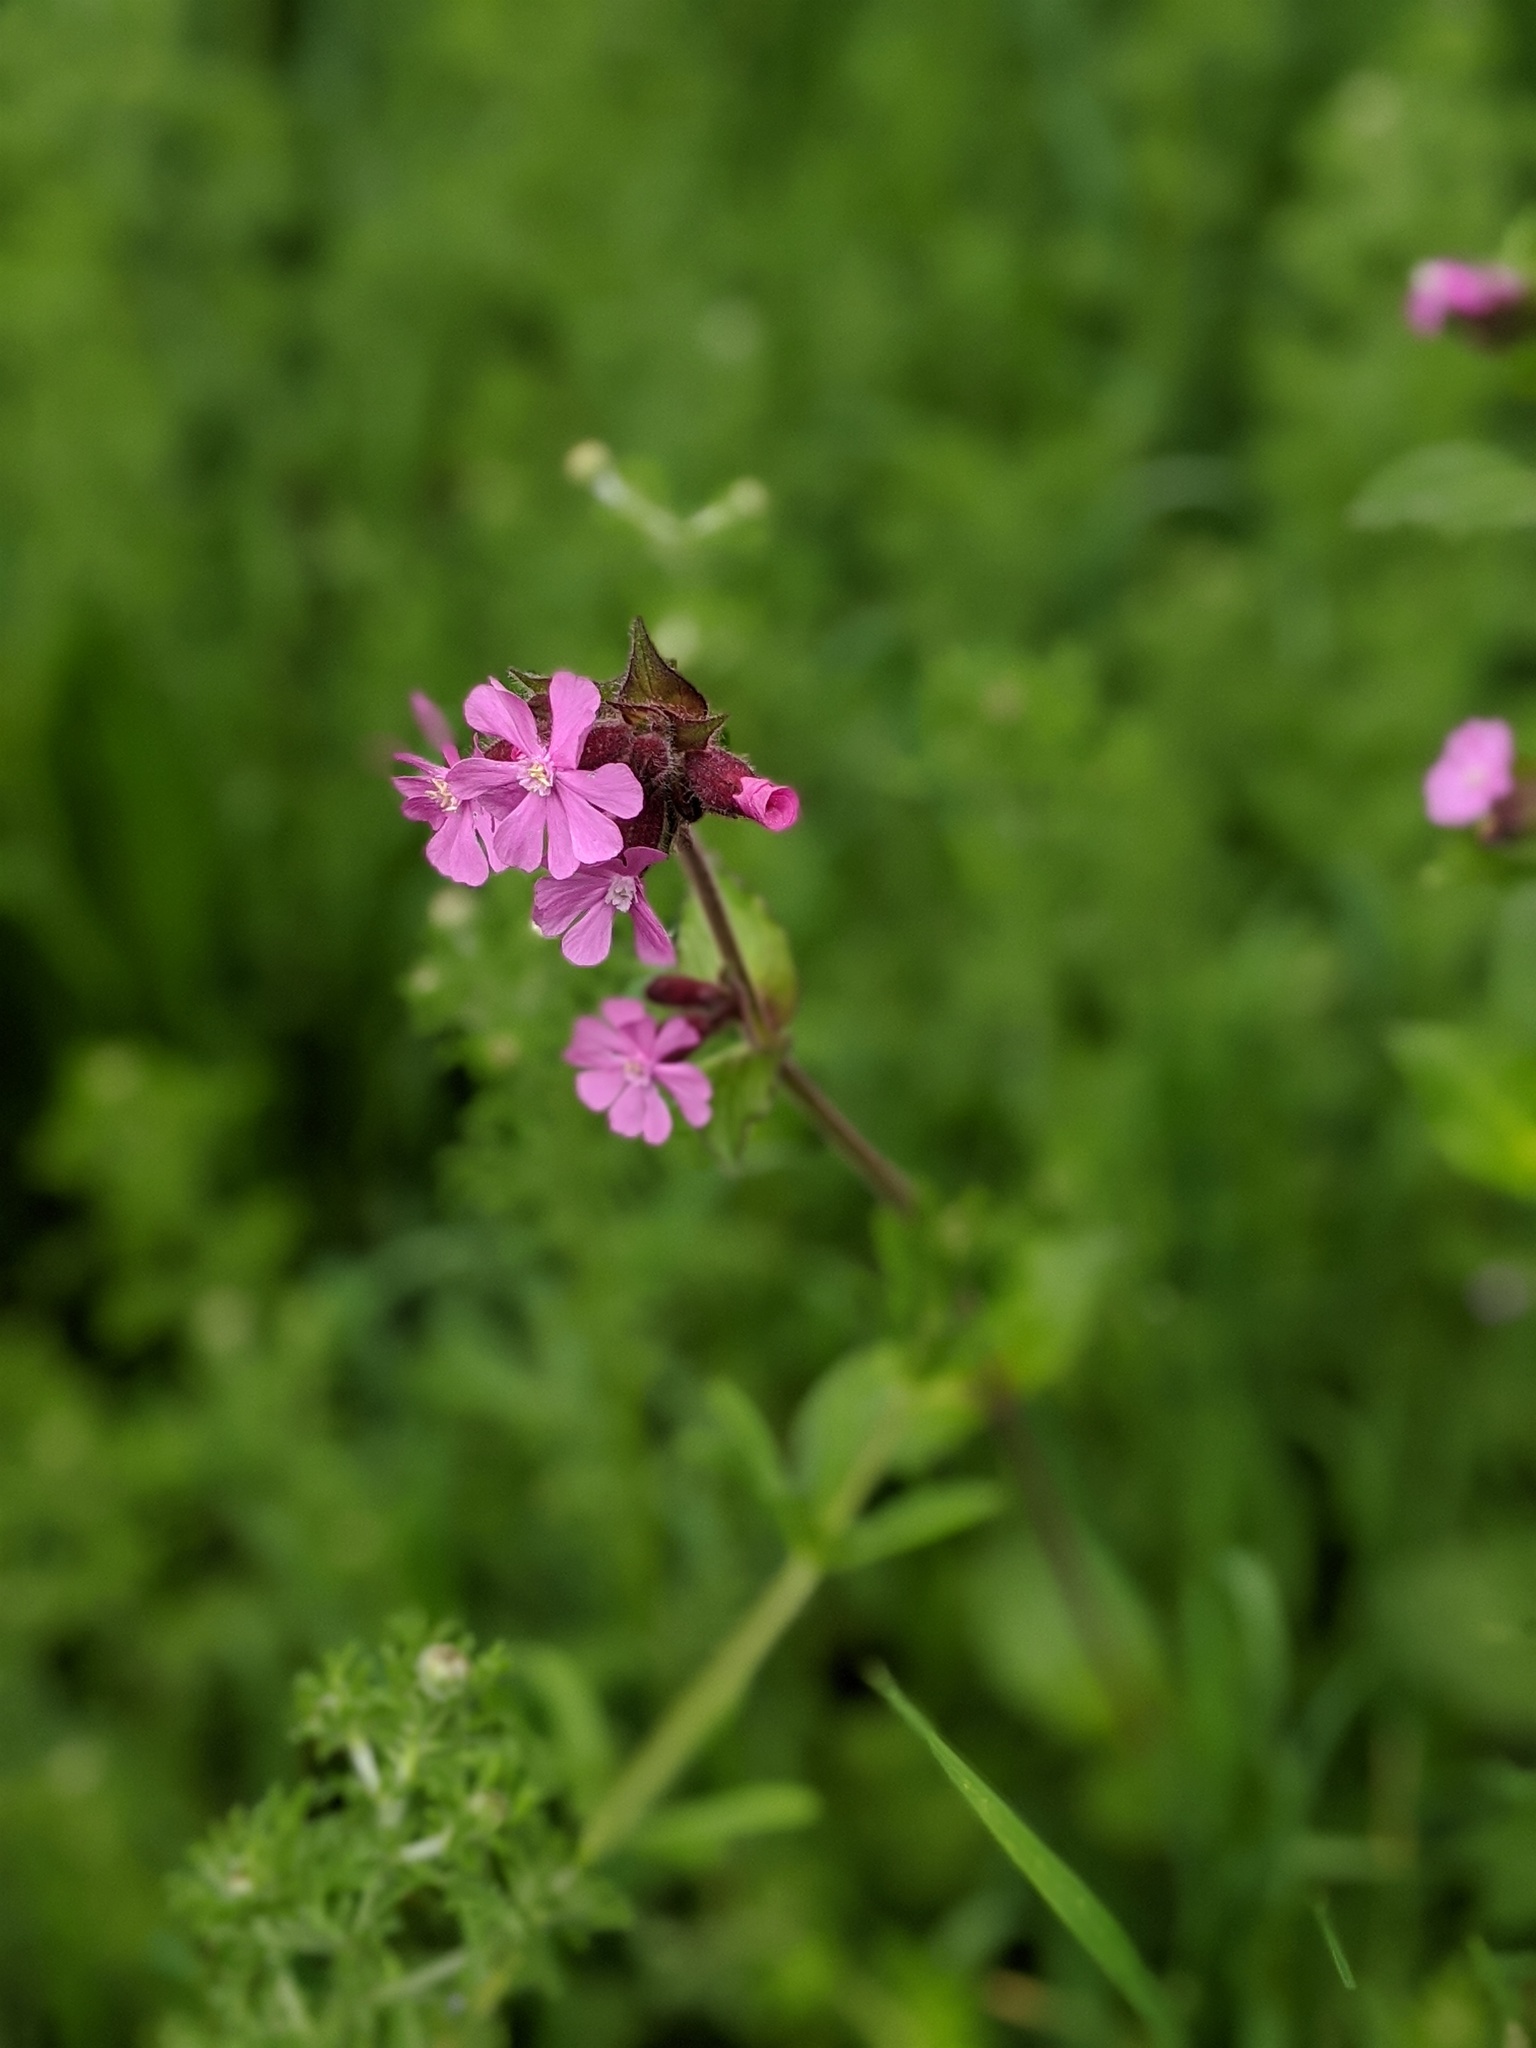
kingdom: Plantae
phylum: Tracheophyta
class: Magnoliopsida
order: Caryophyllales
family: Caryophyllaceae
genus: Silene
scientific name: Silene dioica
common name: Red campion
